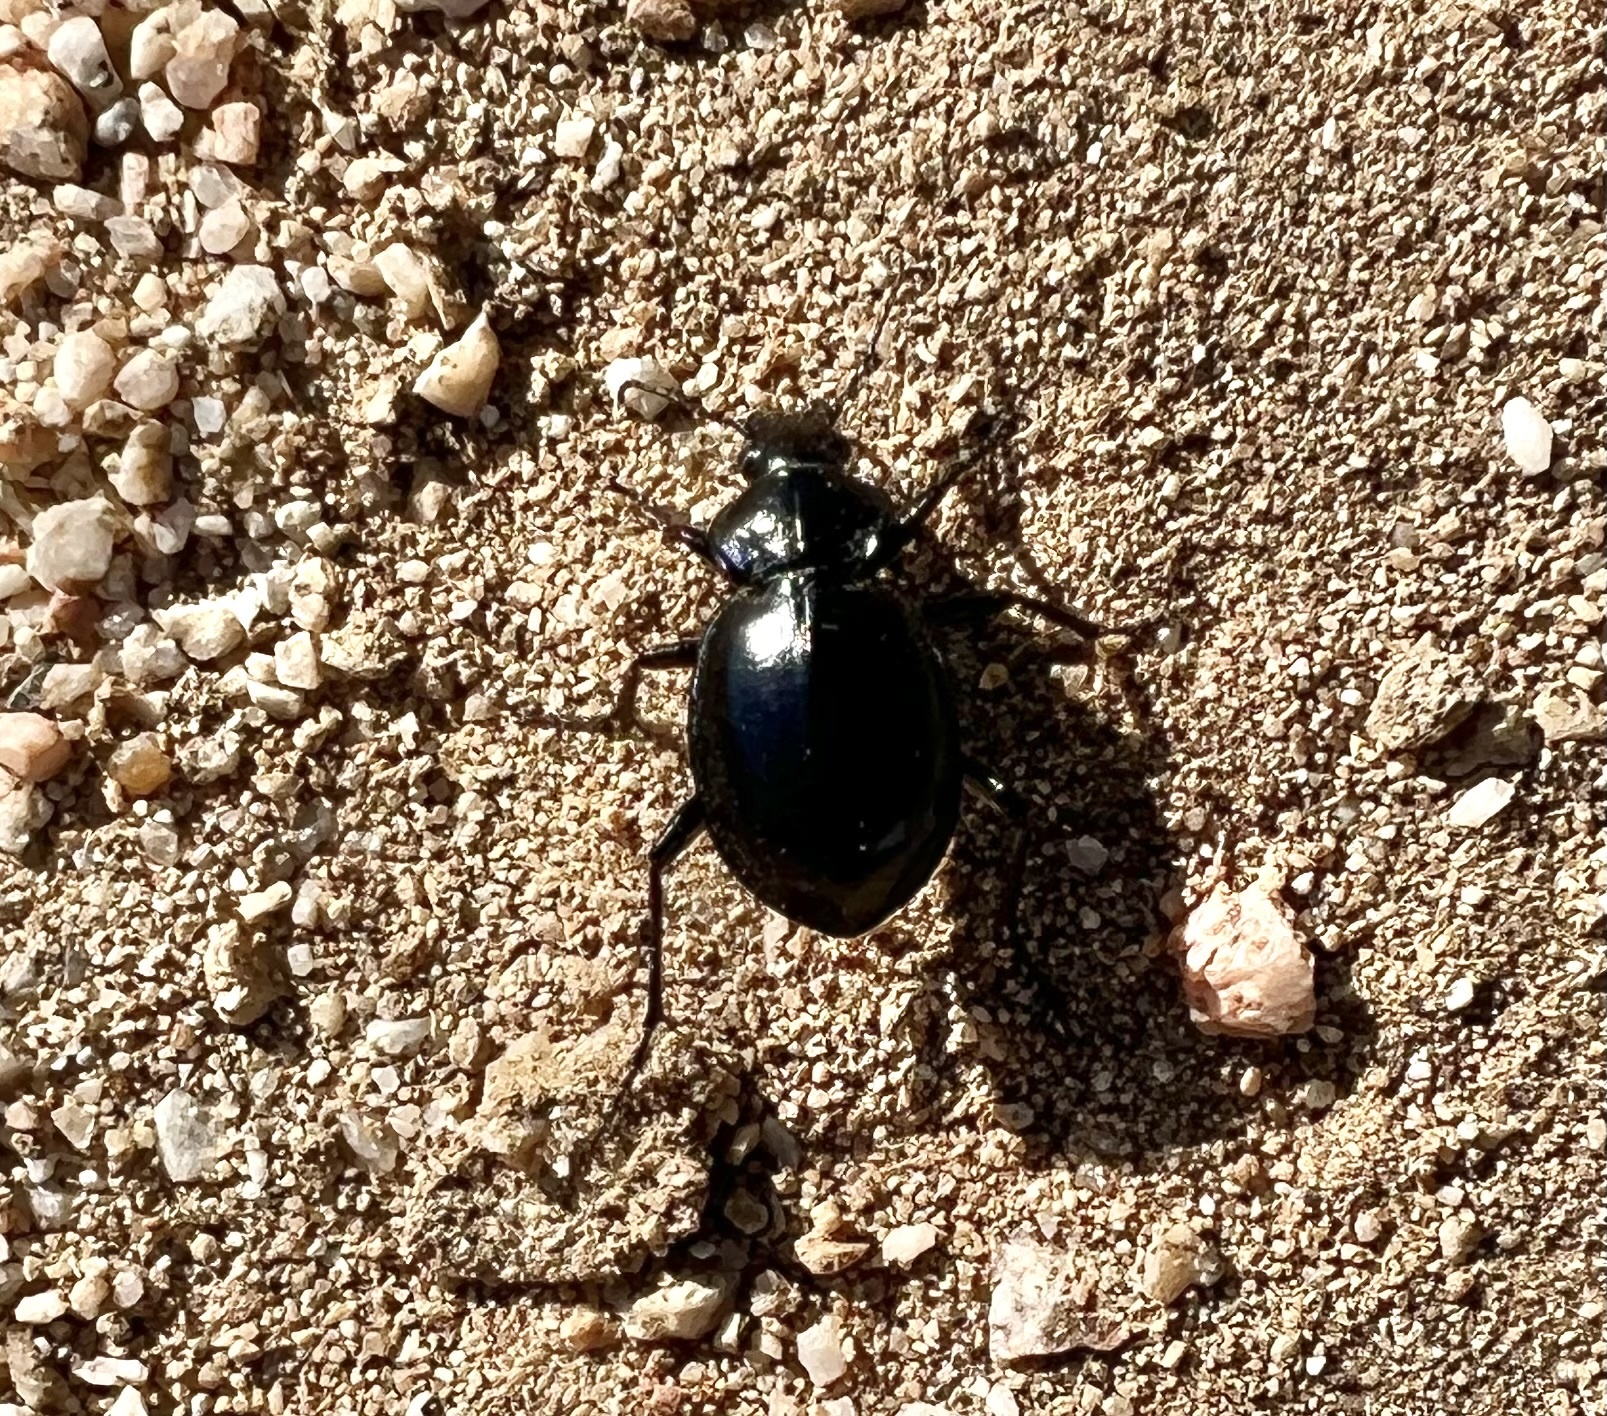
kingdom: Animalia
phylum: Arthropoda
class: Insecta
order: Coleoptera
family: Carabidae
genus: Calosoma
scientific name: Calosoma latipenne
